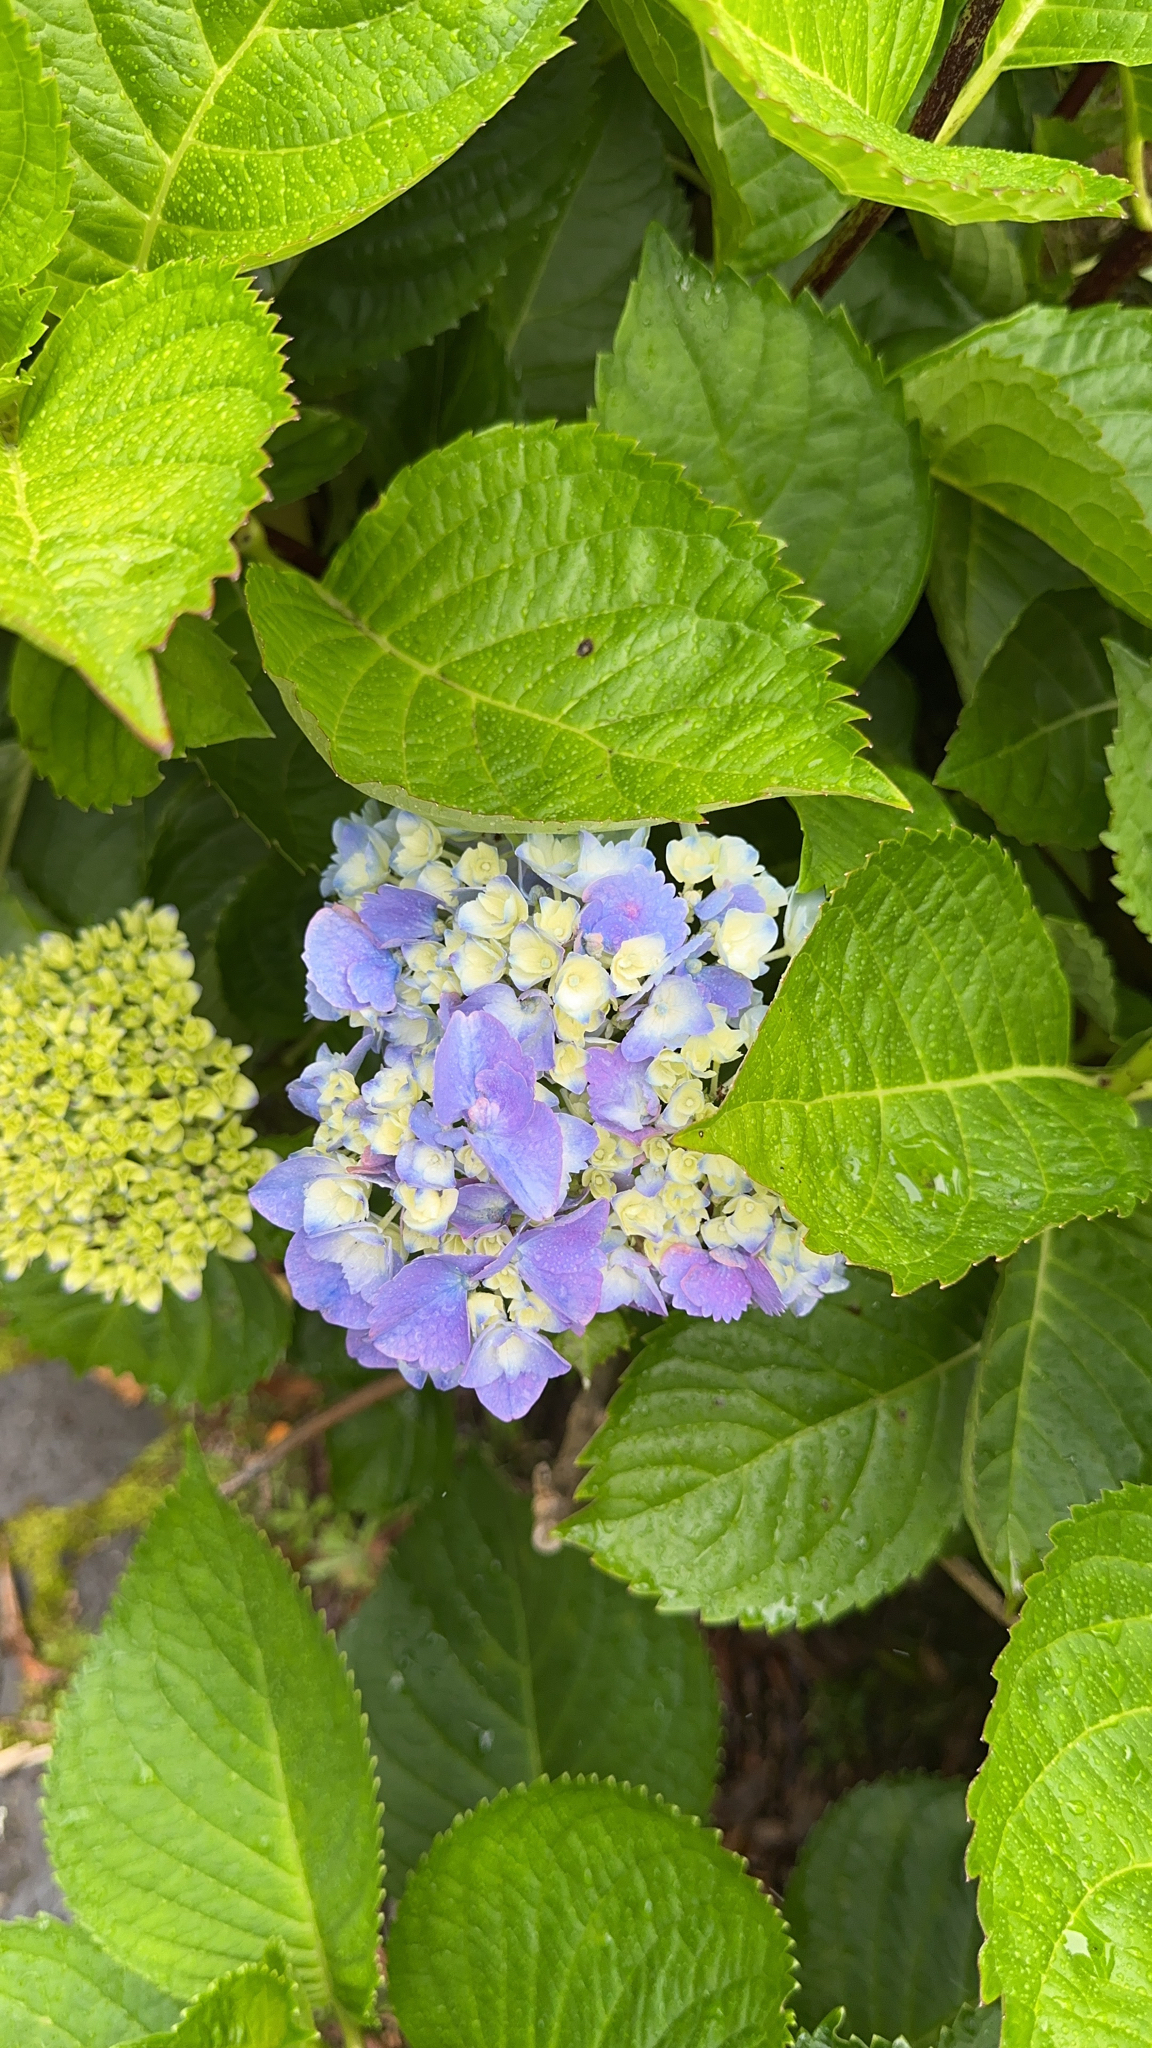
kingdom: Plantae
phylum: Tracheophyta
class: Magnoliopsida
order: Cornales
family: Hydrangeaceae
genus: Hydrangea
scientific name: Hydrangea macrophylla
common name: Hydrangea
